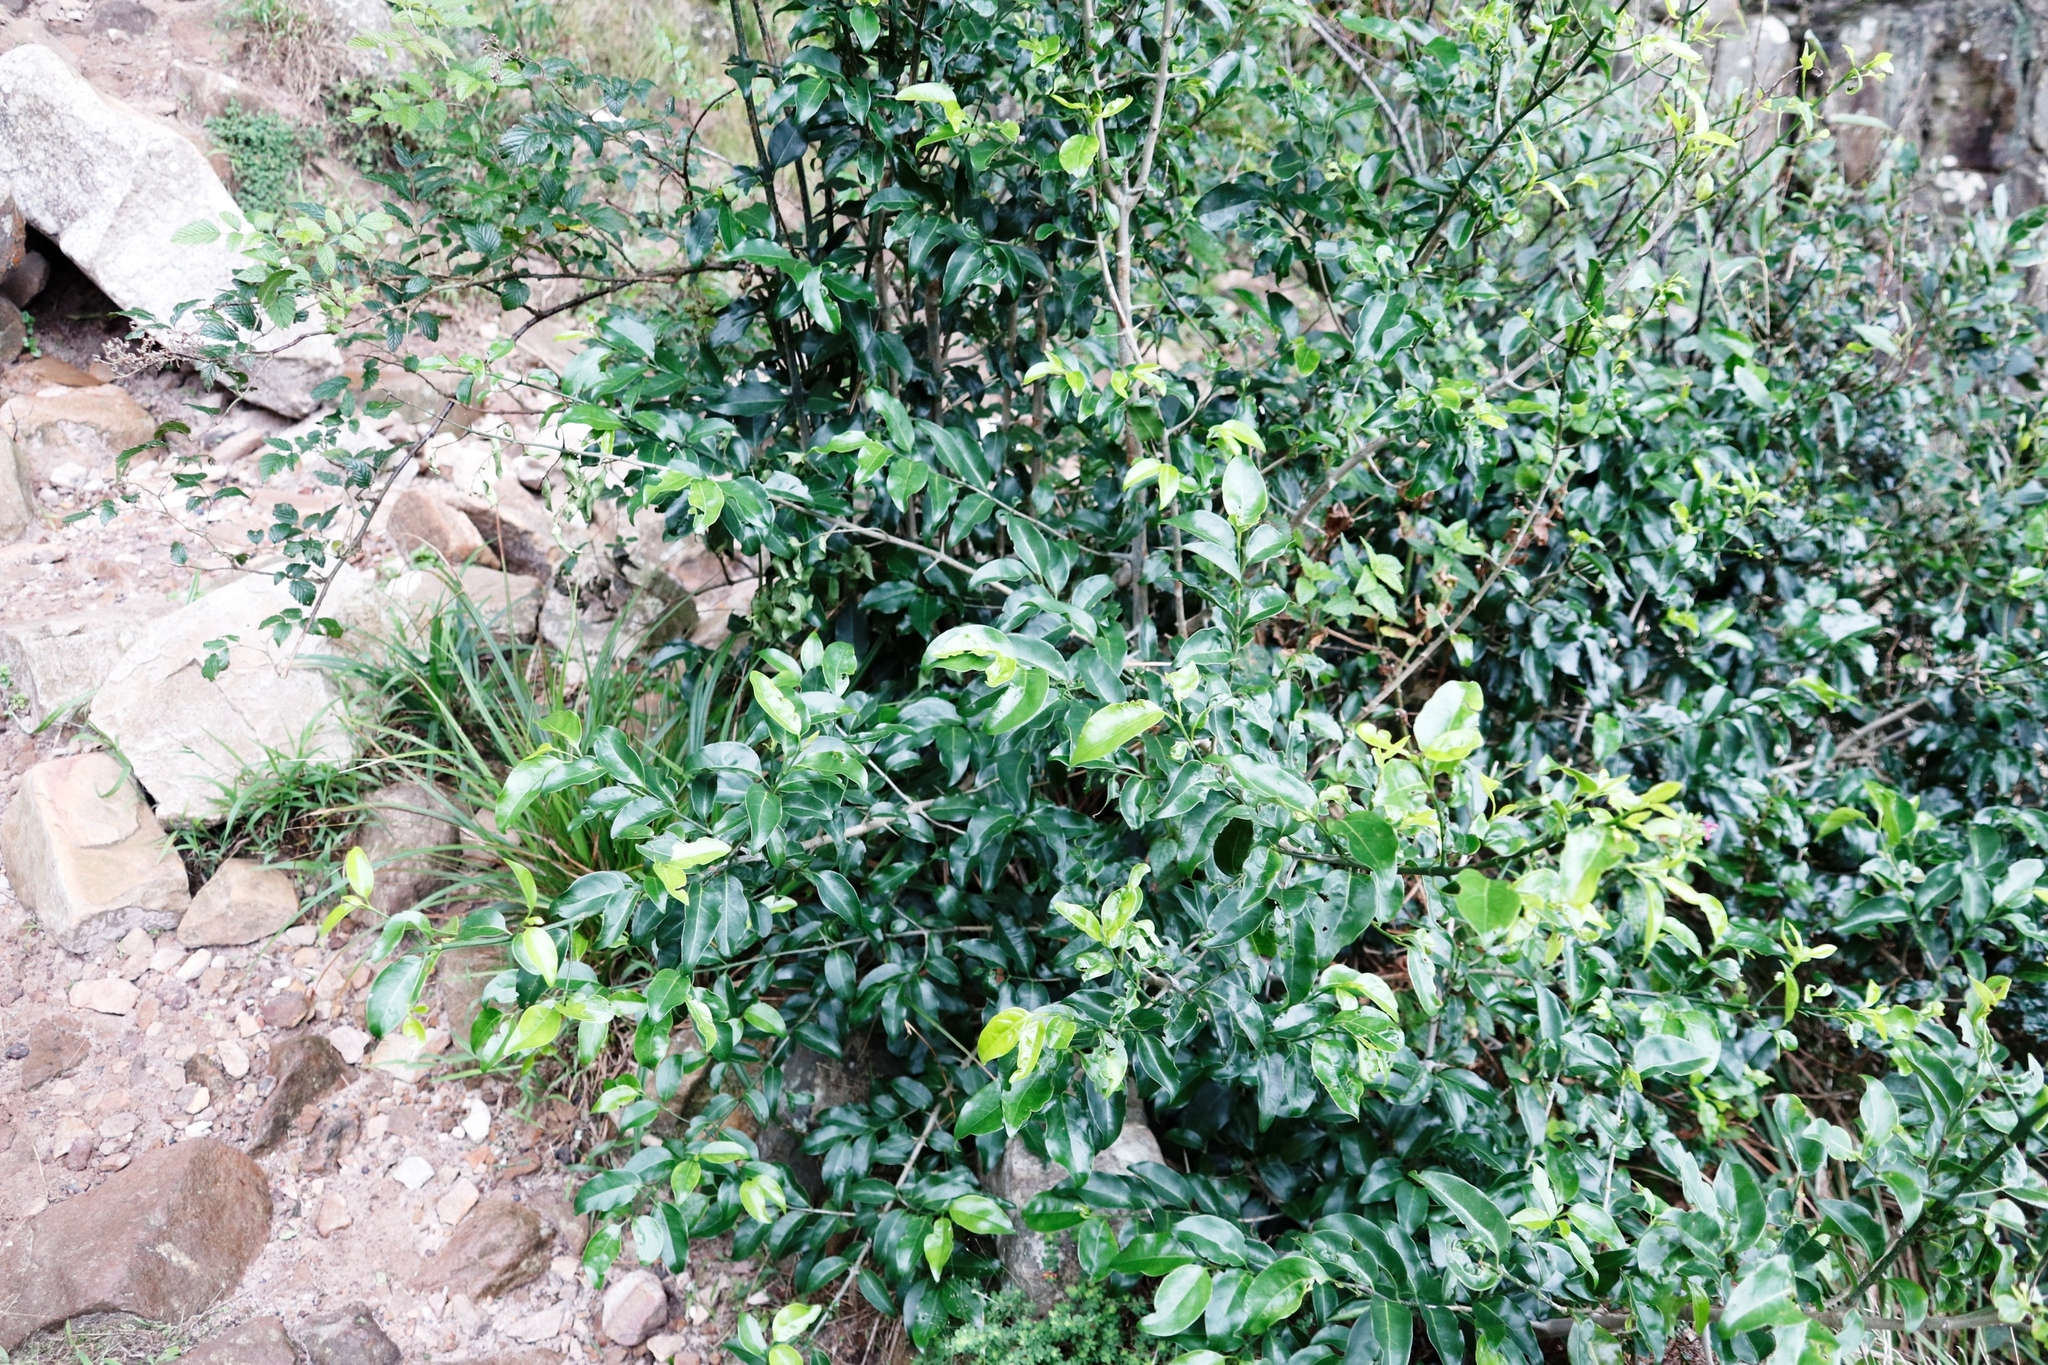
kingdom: Plantae
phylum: Tracheophyta
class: Magnoliopsida
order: Gentianales
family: Rubiaceae
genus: Canthium
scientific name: Canthium inerme
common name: Unarmed turkey-berry
